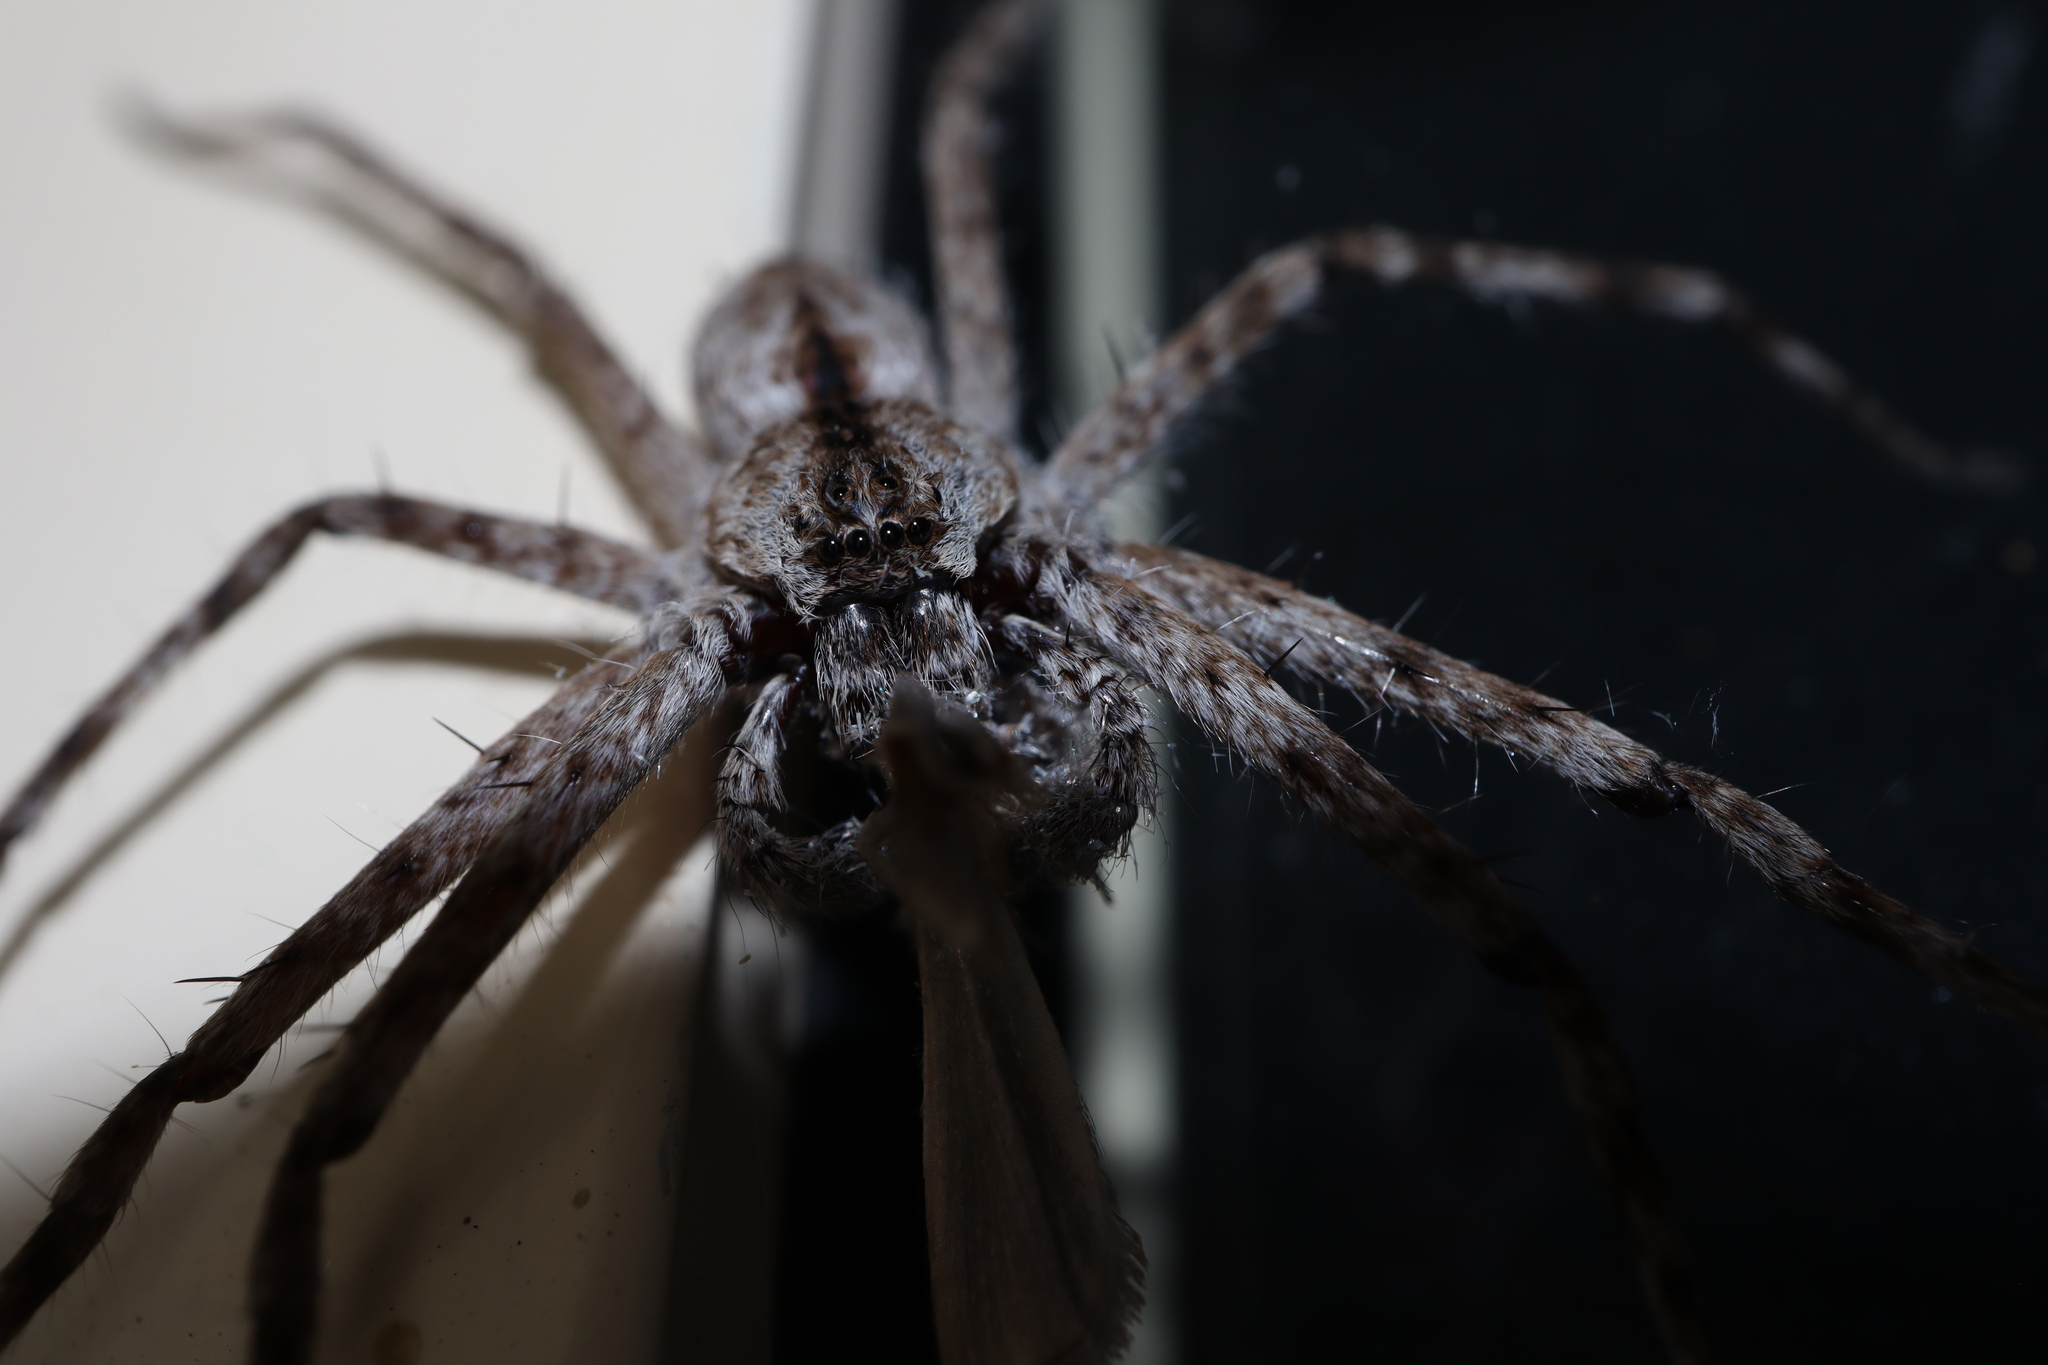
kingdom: Animalia
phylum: Arthropoda
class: Arachnida
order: Araneae
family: Sparassidae
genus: Pediana
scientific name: Pediana regina
